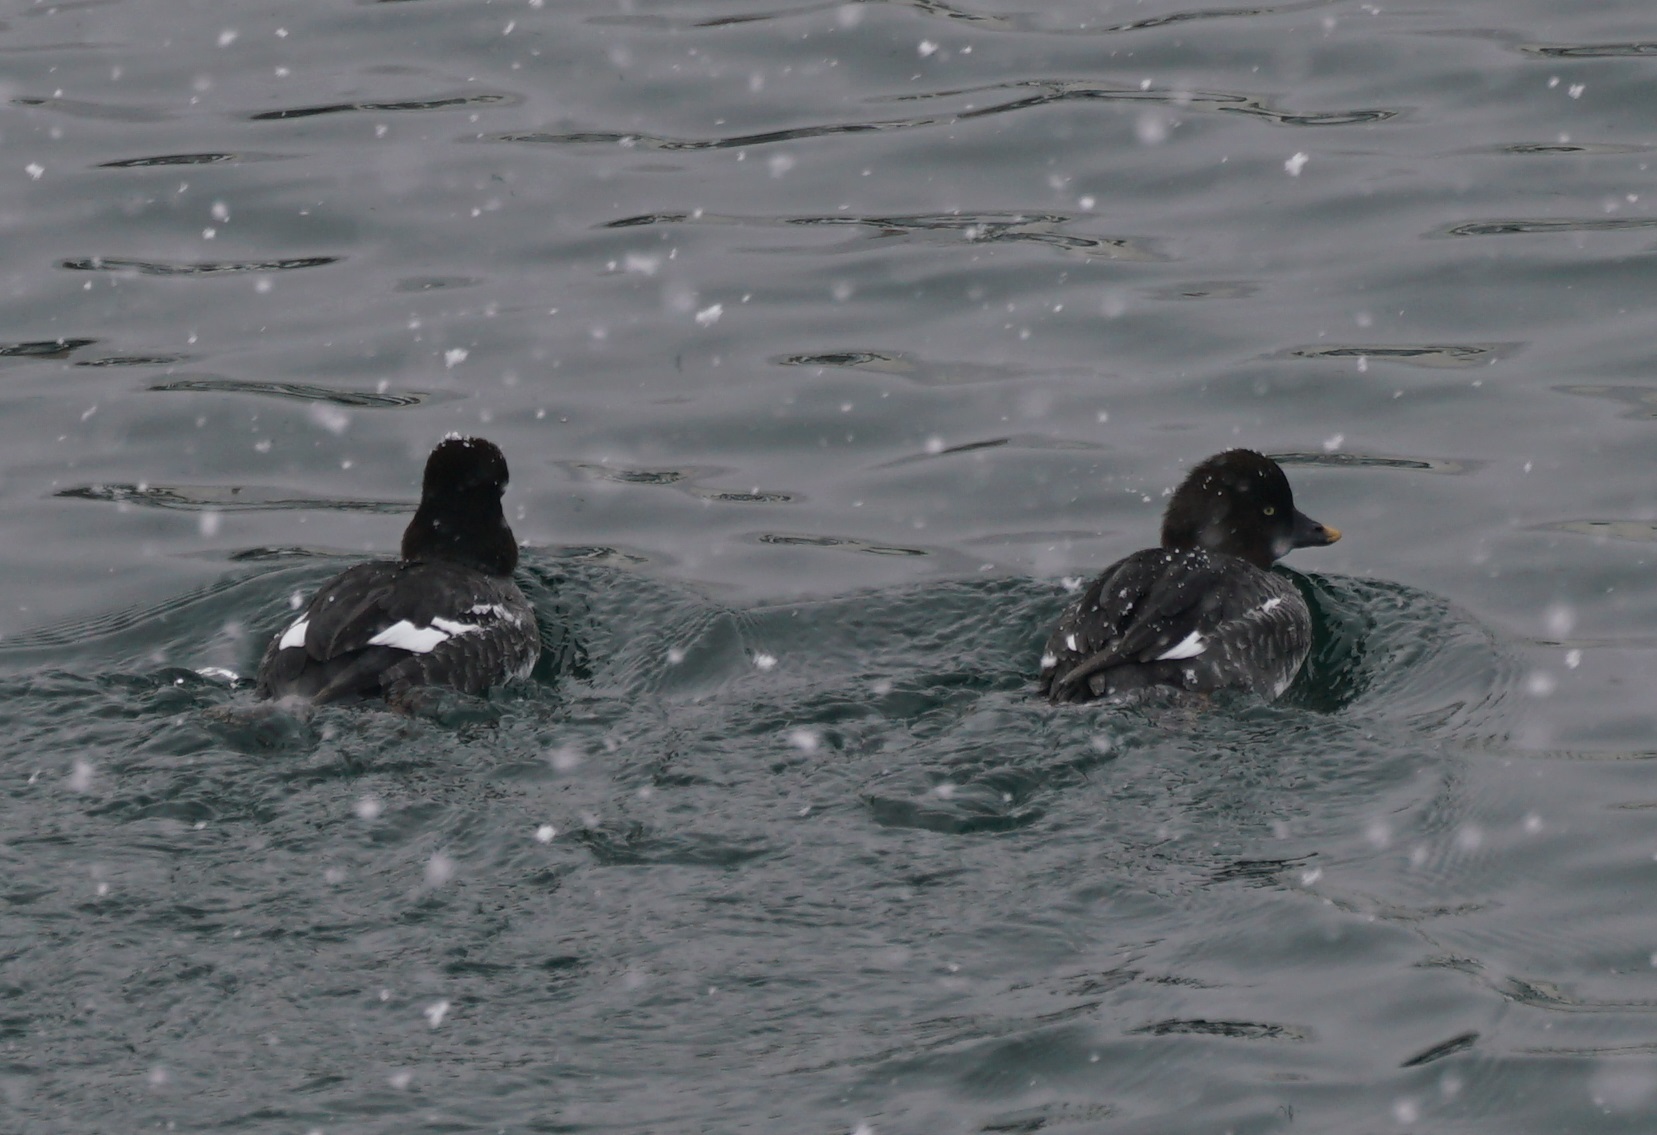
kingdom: Animalia
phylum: Chordata
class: Aves
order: Anseriformes
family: Anatidae
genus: Bucephala
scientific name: Bucephala clangula
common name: Common goldeneye
